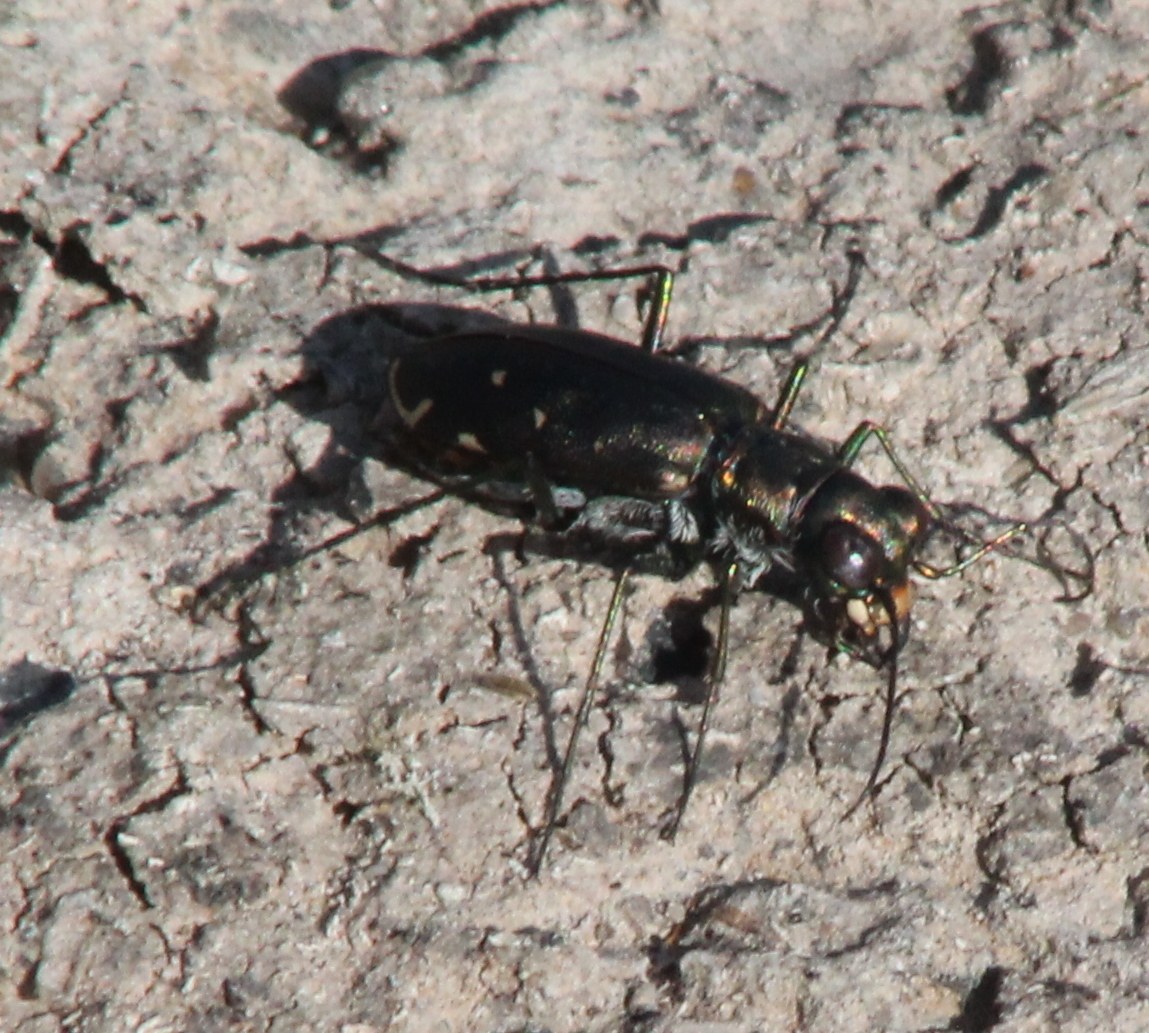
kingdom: Animalia
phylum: Arthropoda
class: Insecta
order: Coleoptera
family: Carabidae
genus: Cicindela
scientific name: Cicindela punctulata
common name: Punctured tiger beetle
